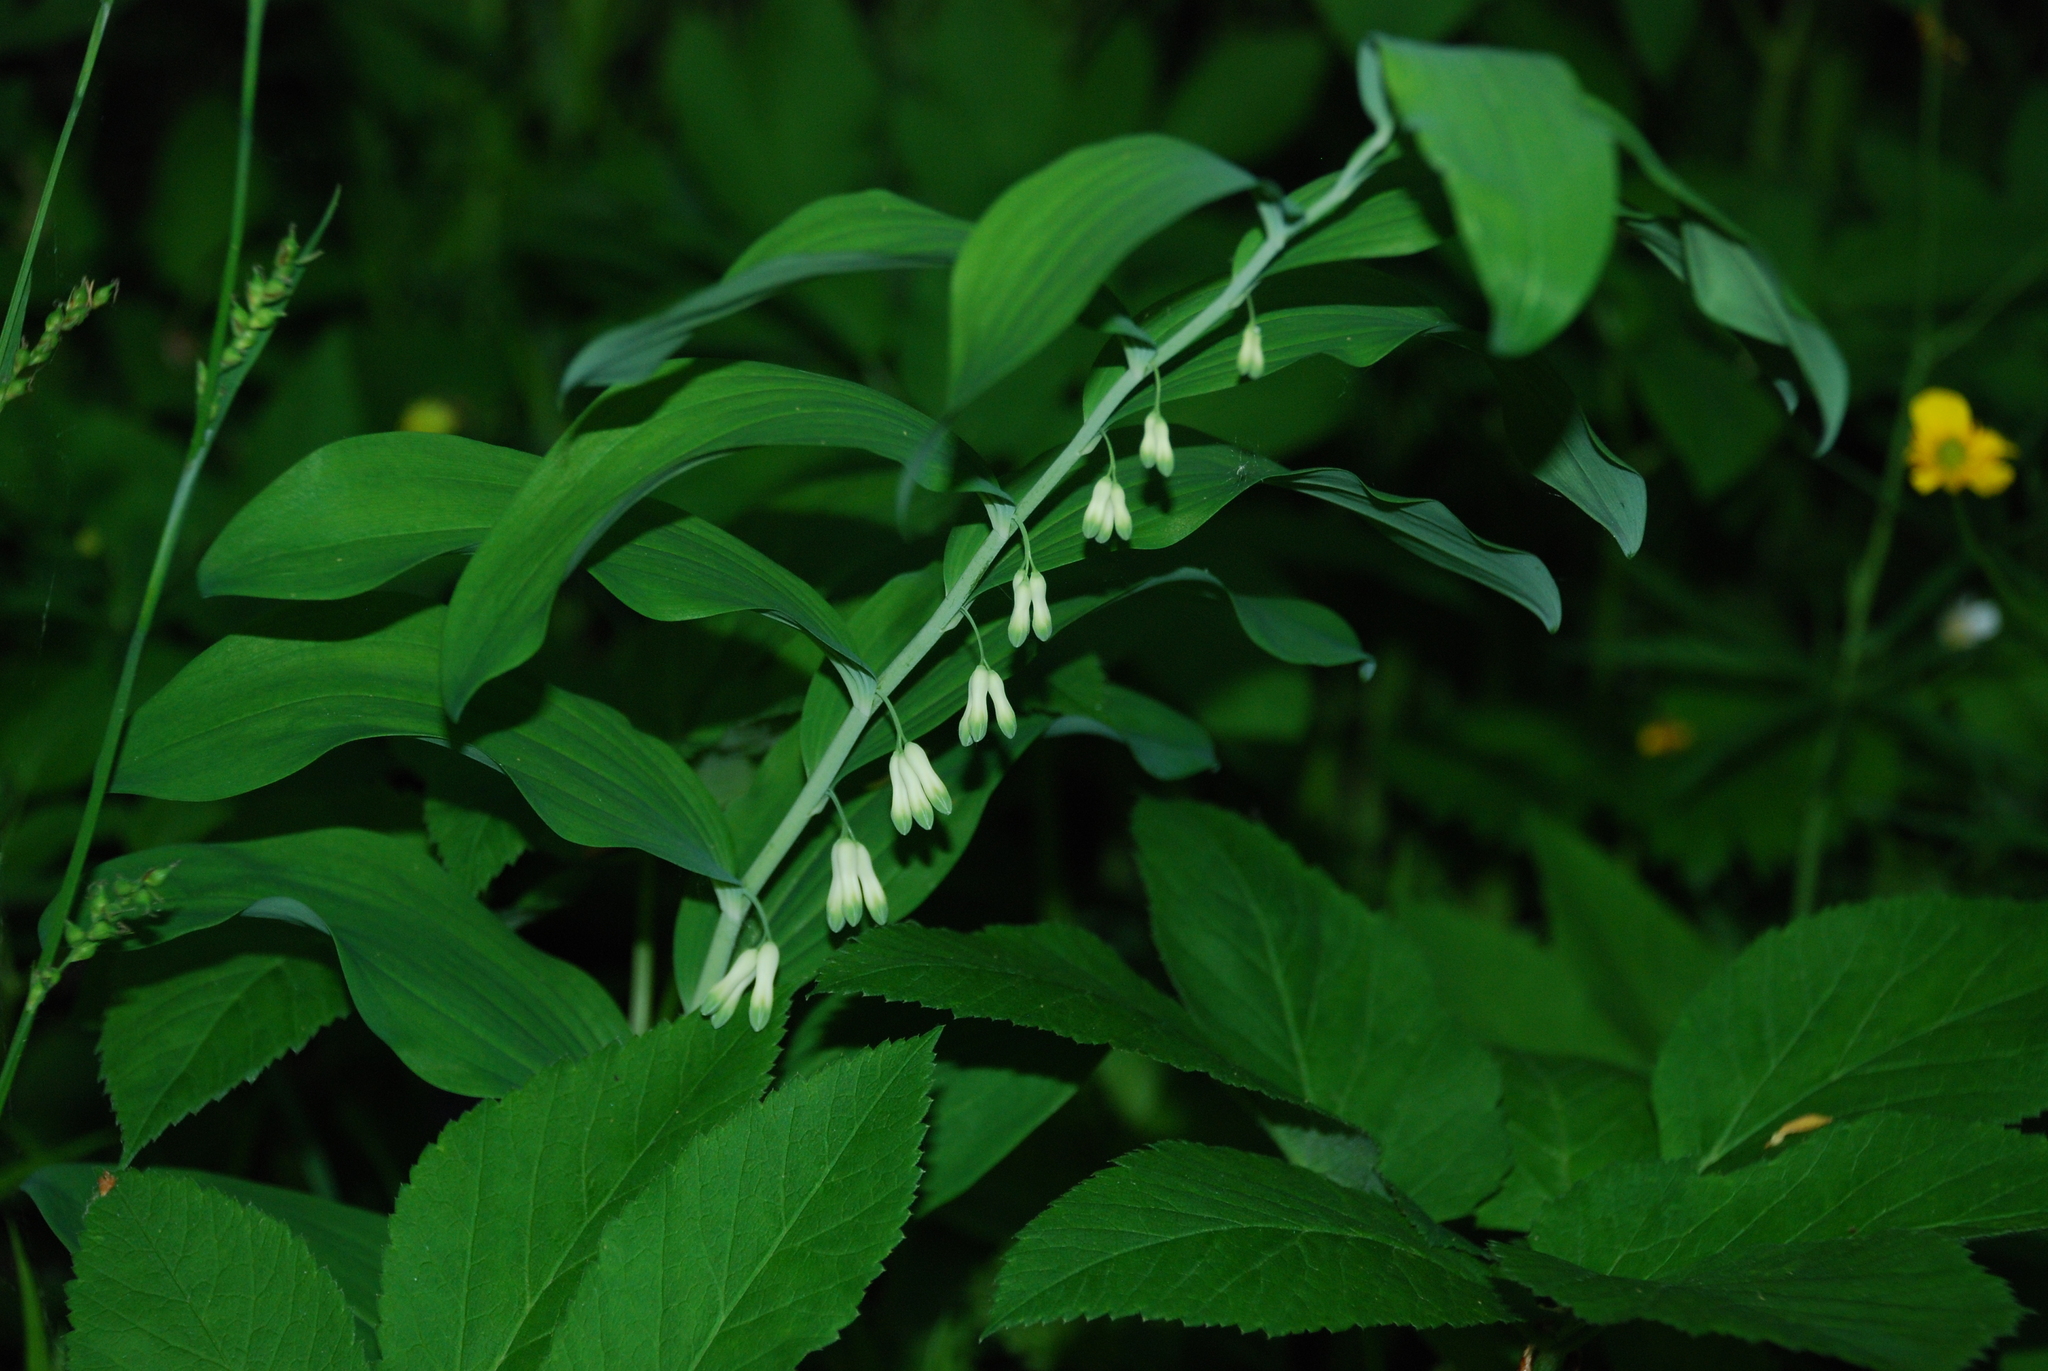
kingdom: Plantae
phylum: Tracheophyta
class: Liliopsida
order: Asparagales
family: Asparagaceae
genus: Polygonatum
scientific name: Polygonatum multiflorum
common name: Solomon's-seal
